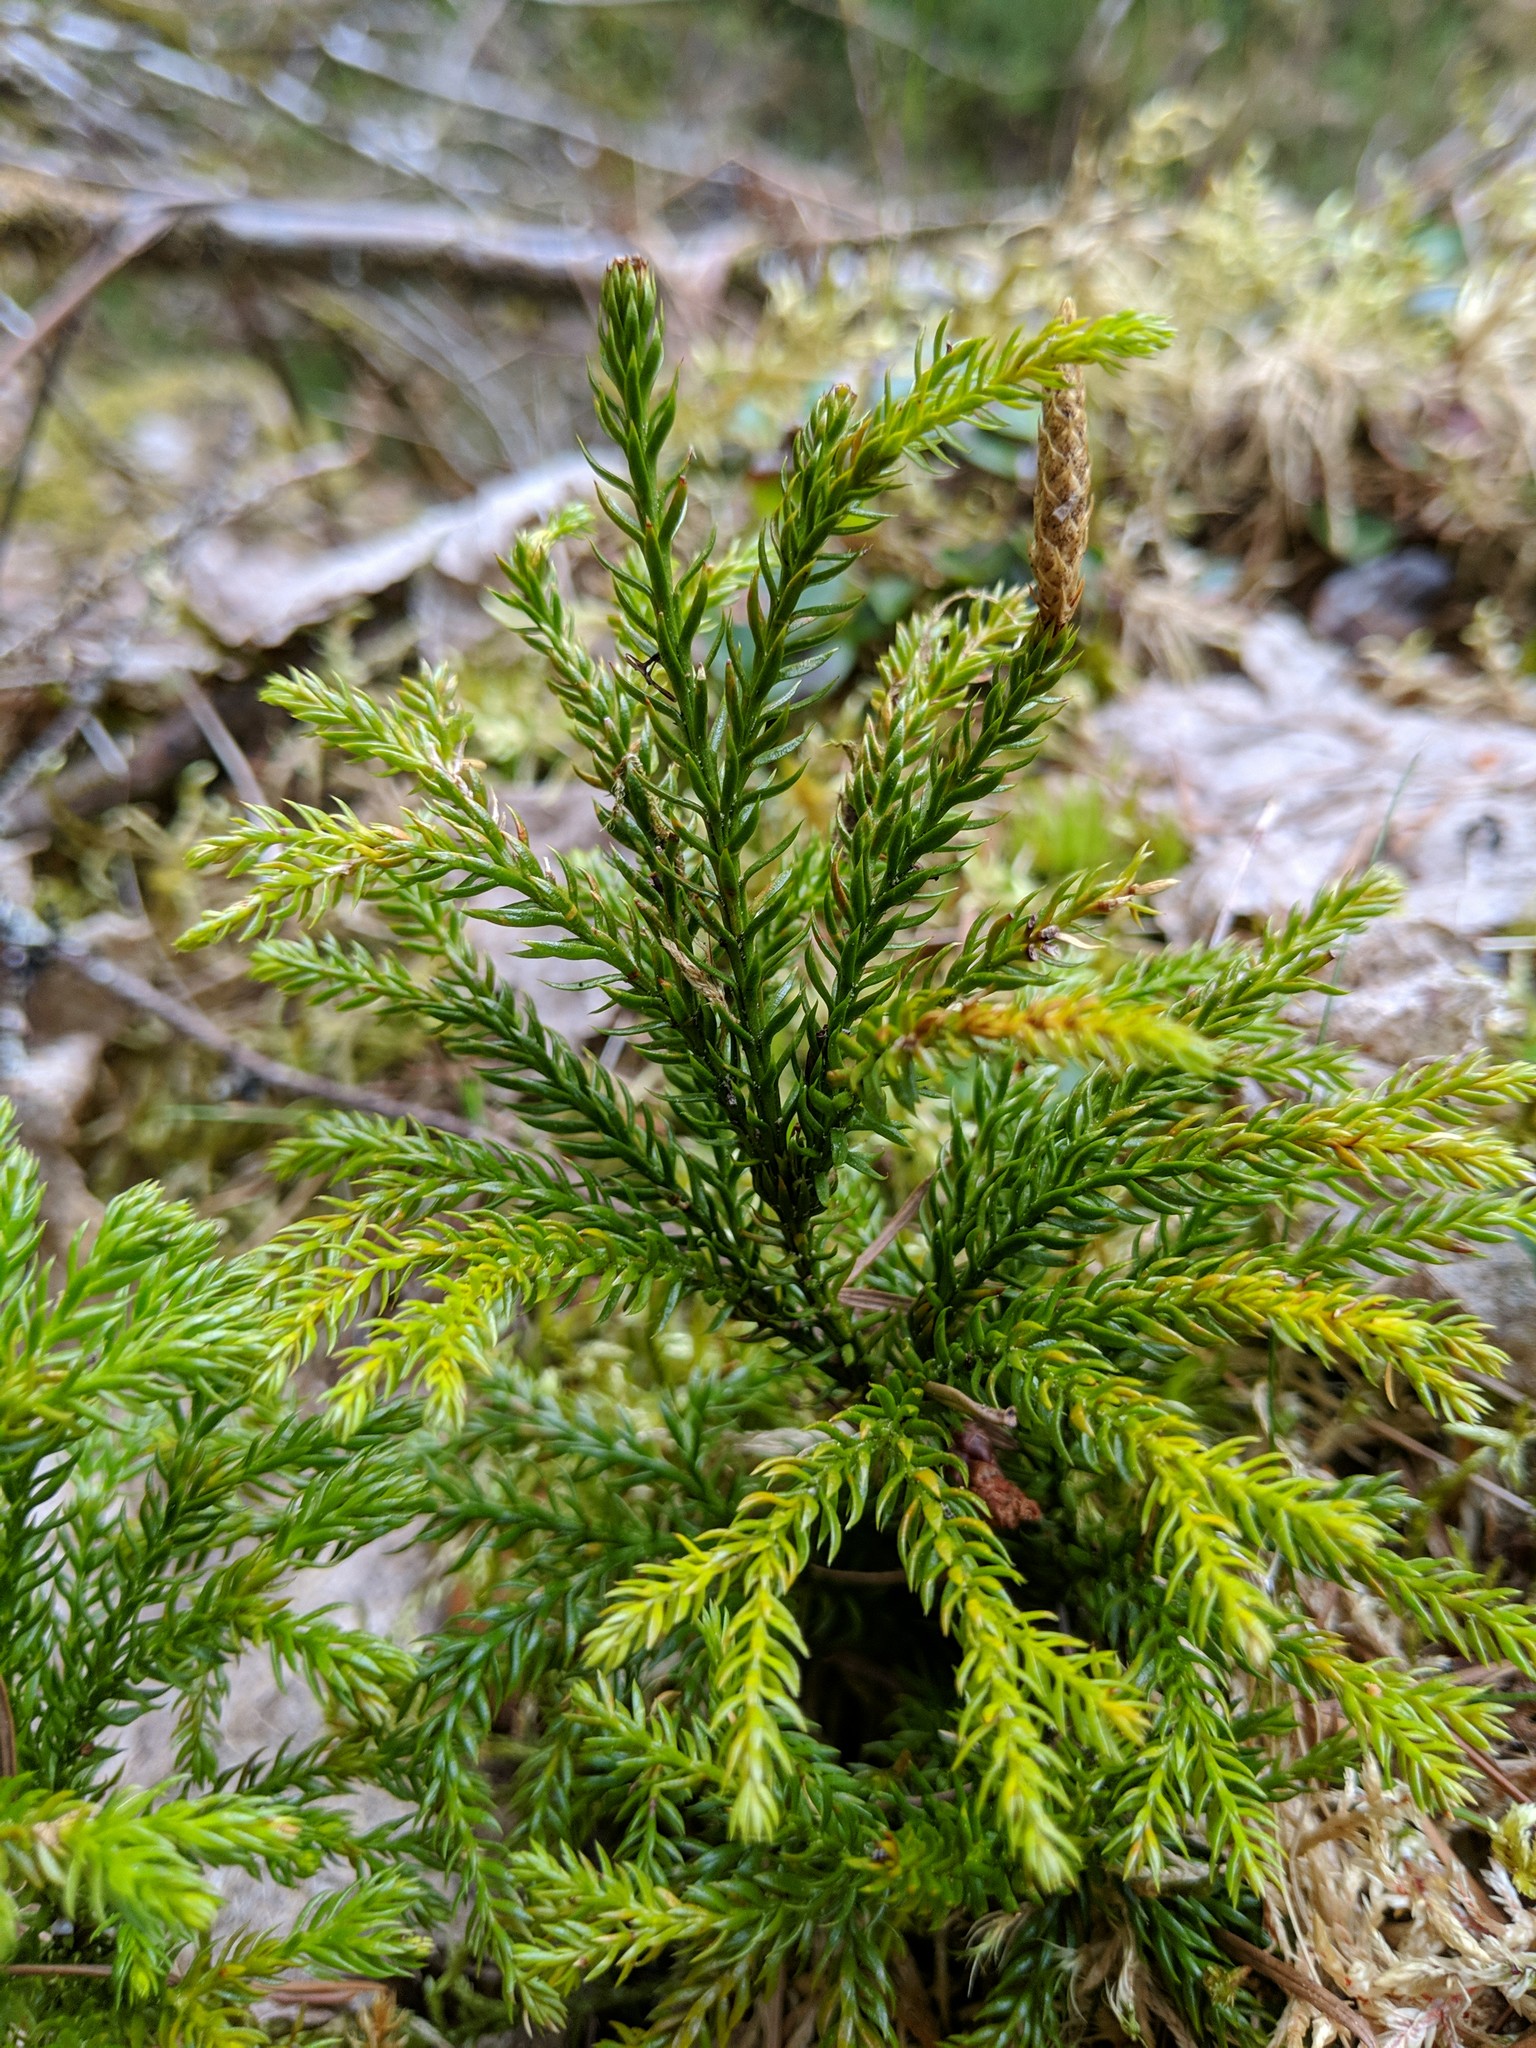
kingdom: Plantae
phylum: Tracheophyta
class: Lycopodiopsida
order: Lycopodiales
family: Lycopodiaceae
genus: Dendrolycopodium
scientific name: Dendrolycopodium dendroideum
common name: Northern tree-clubmoss
